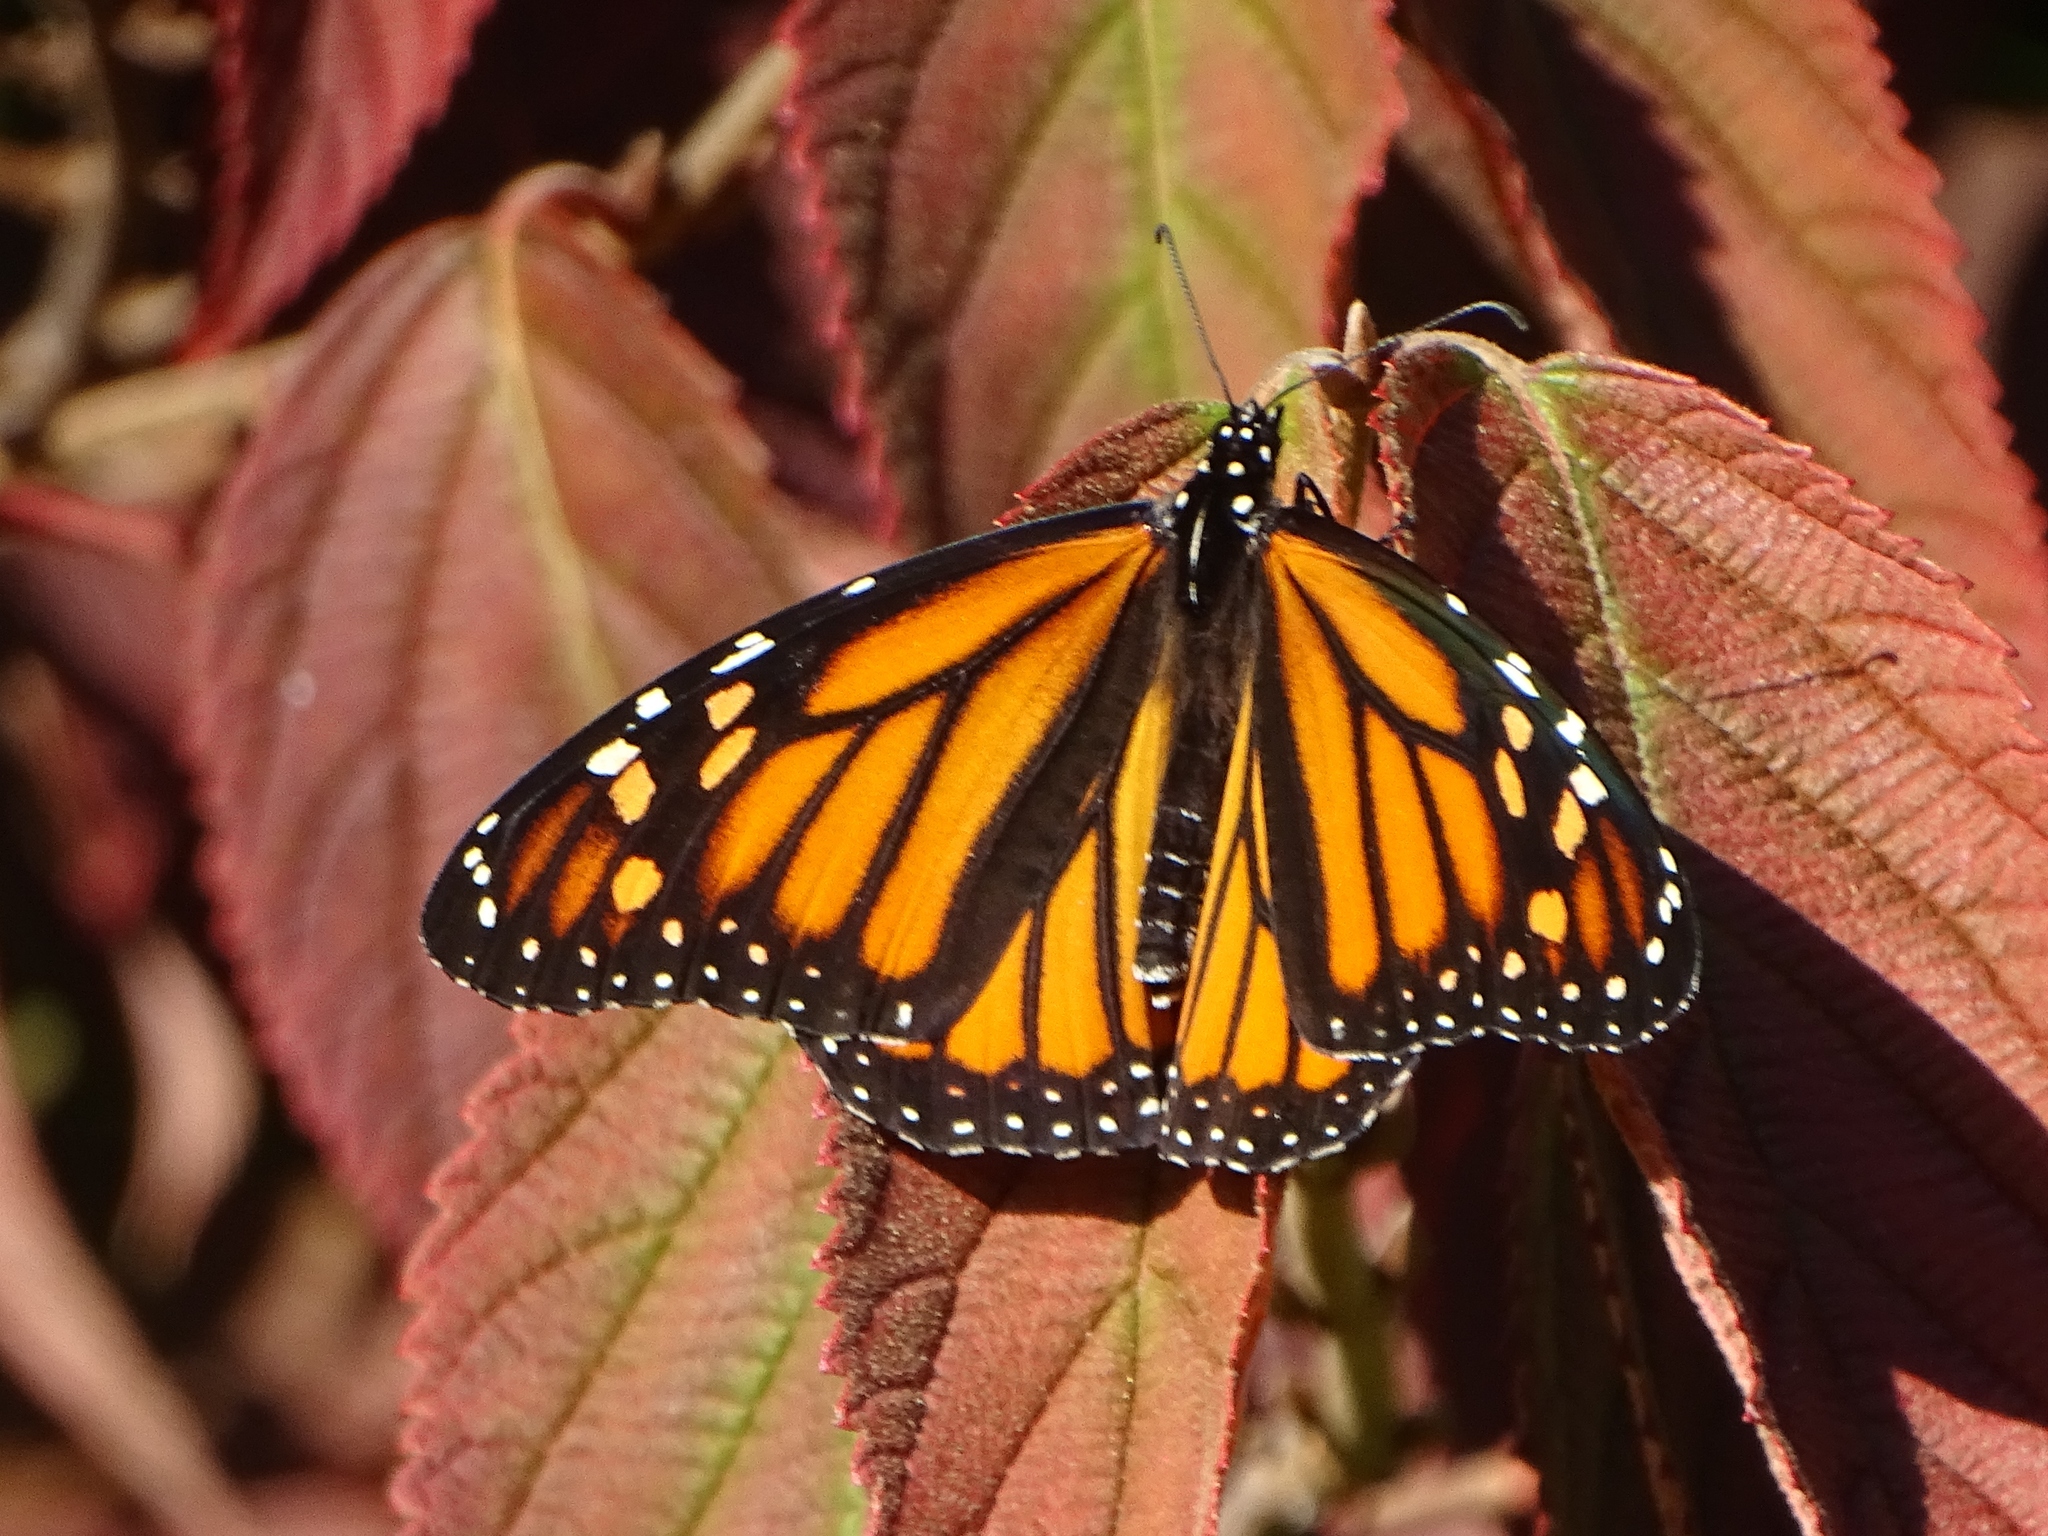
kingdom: Animalia
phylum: Arthropoda
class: Insecta
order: Lepidoptera
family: Nymphalidae
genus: Danaus
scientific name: Danaus plexippus
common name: Monarch
